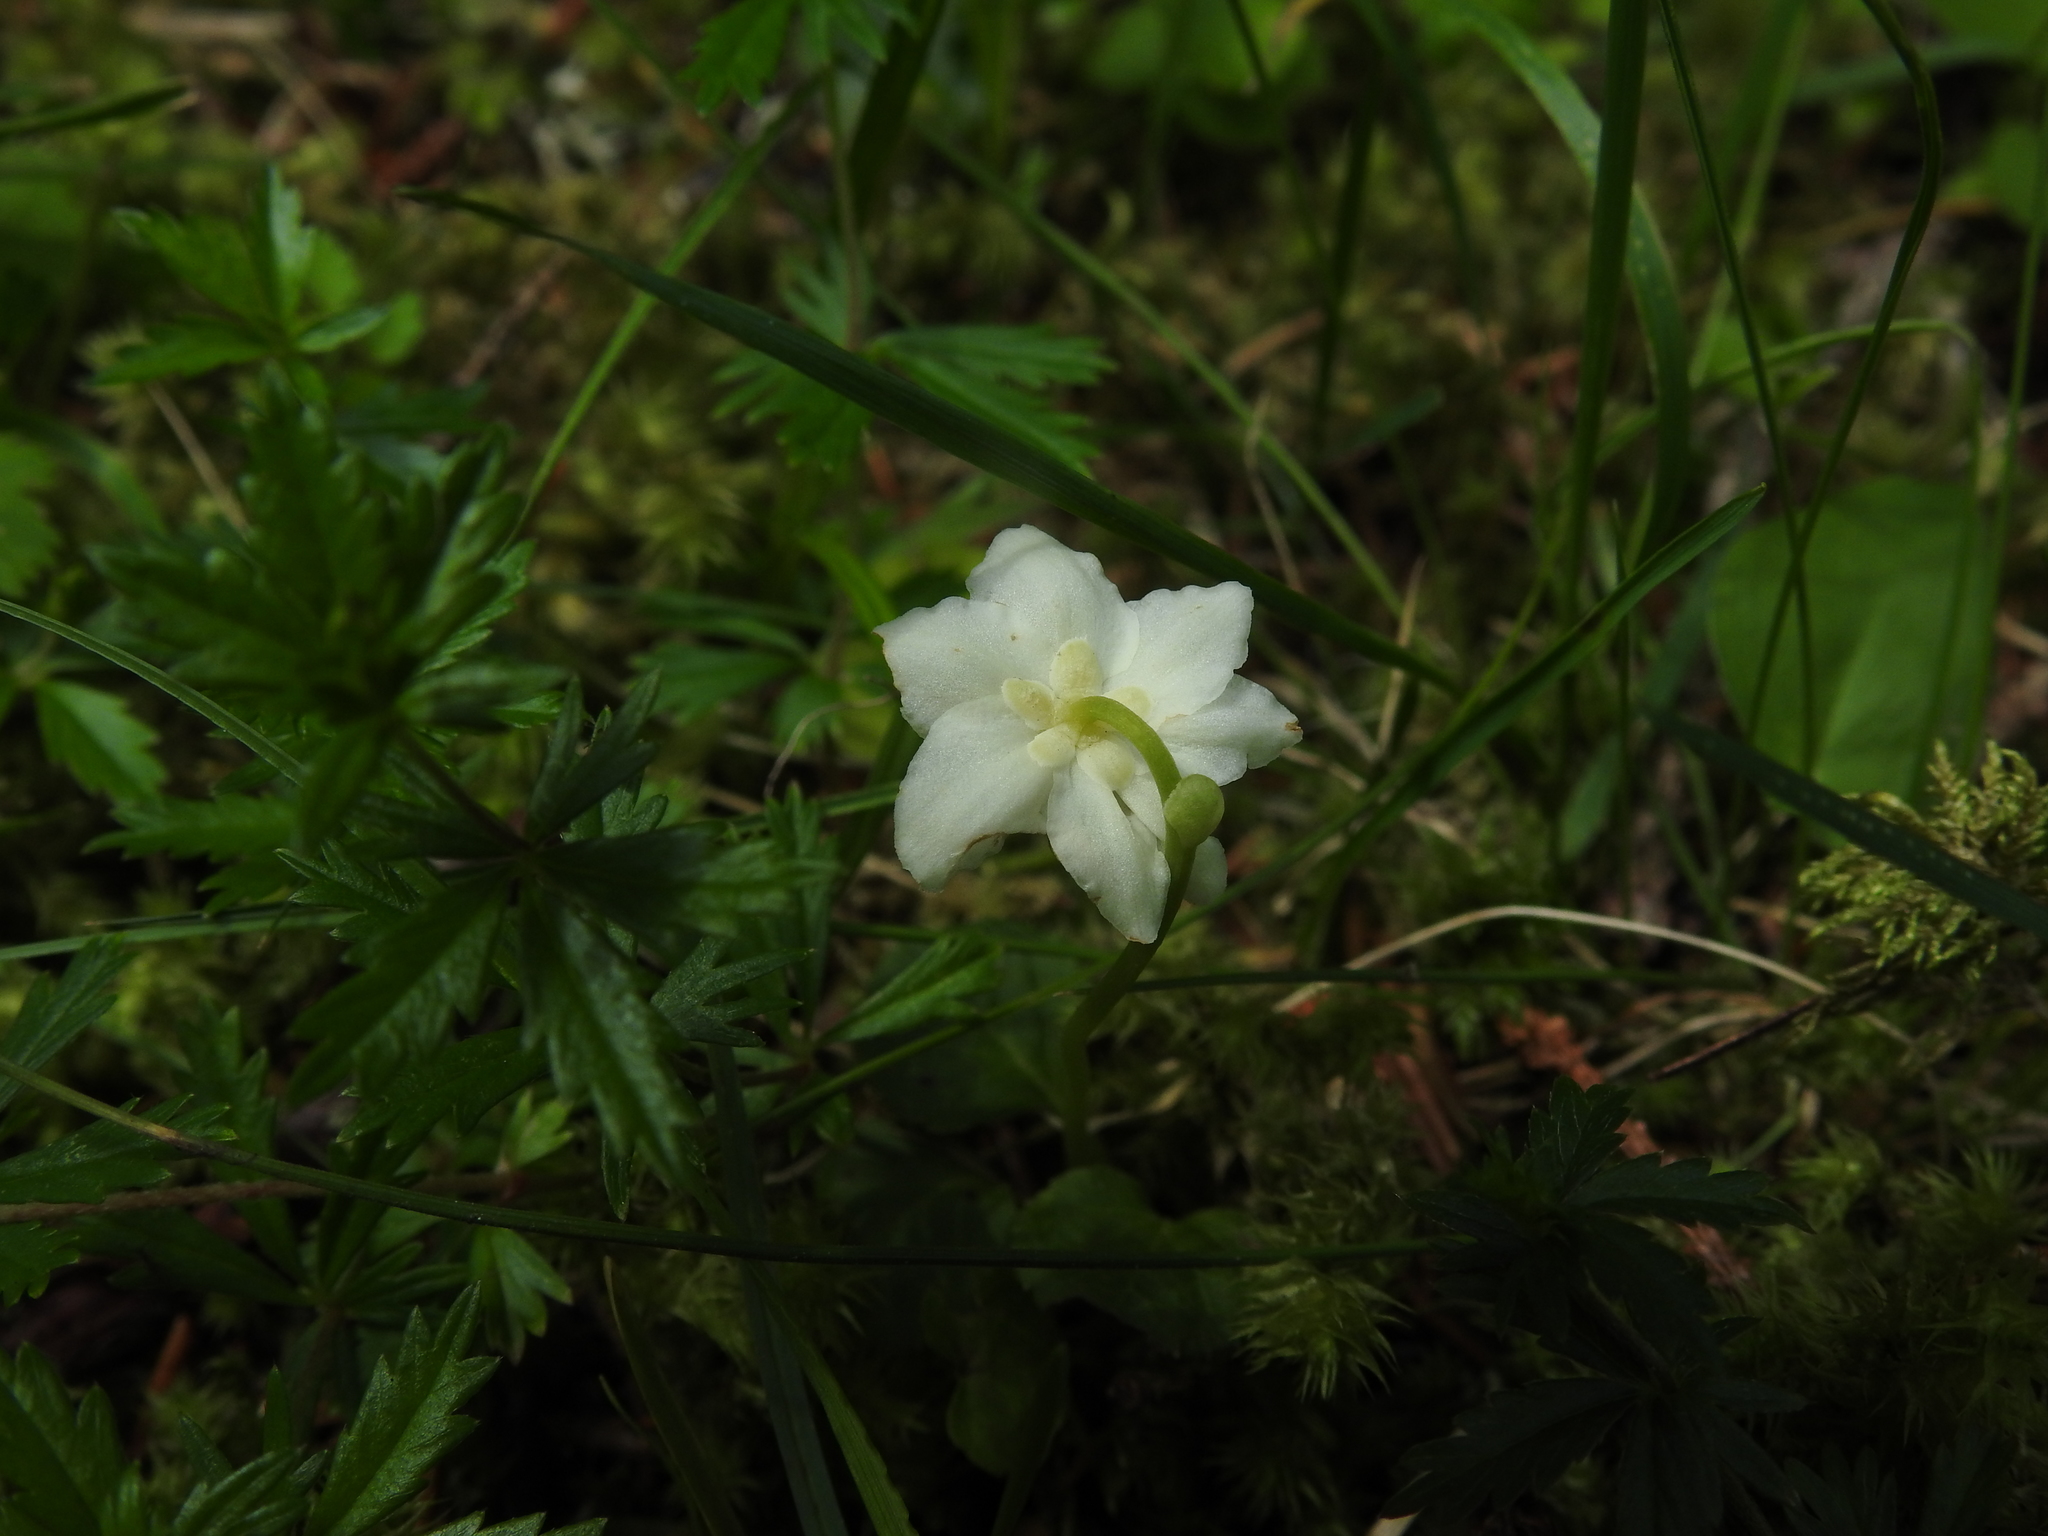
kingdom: Plantae
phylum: Tracheophyta
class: Magnoliopsida
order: Ericales
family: Ericaceae
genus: Moneses
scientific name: Moneses uniflora
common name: One-flowered wintergreen
